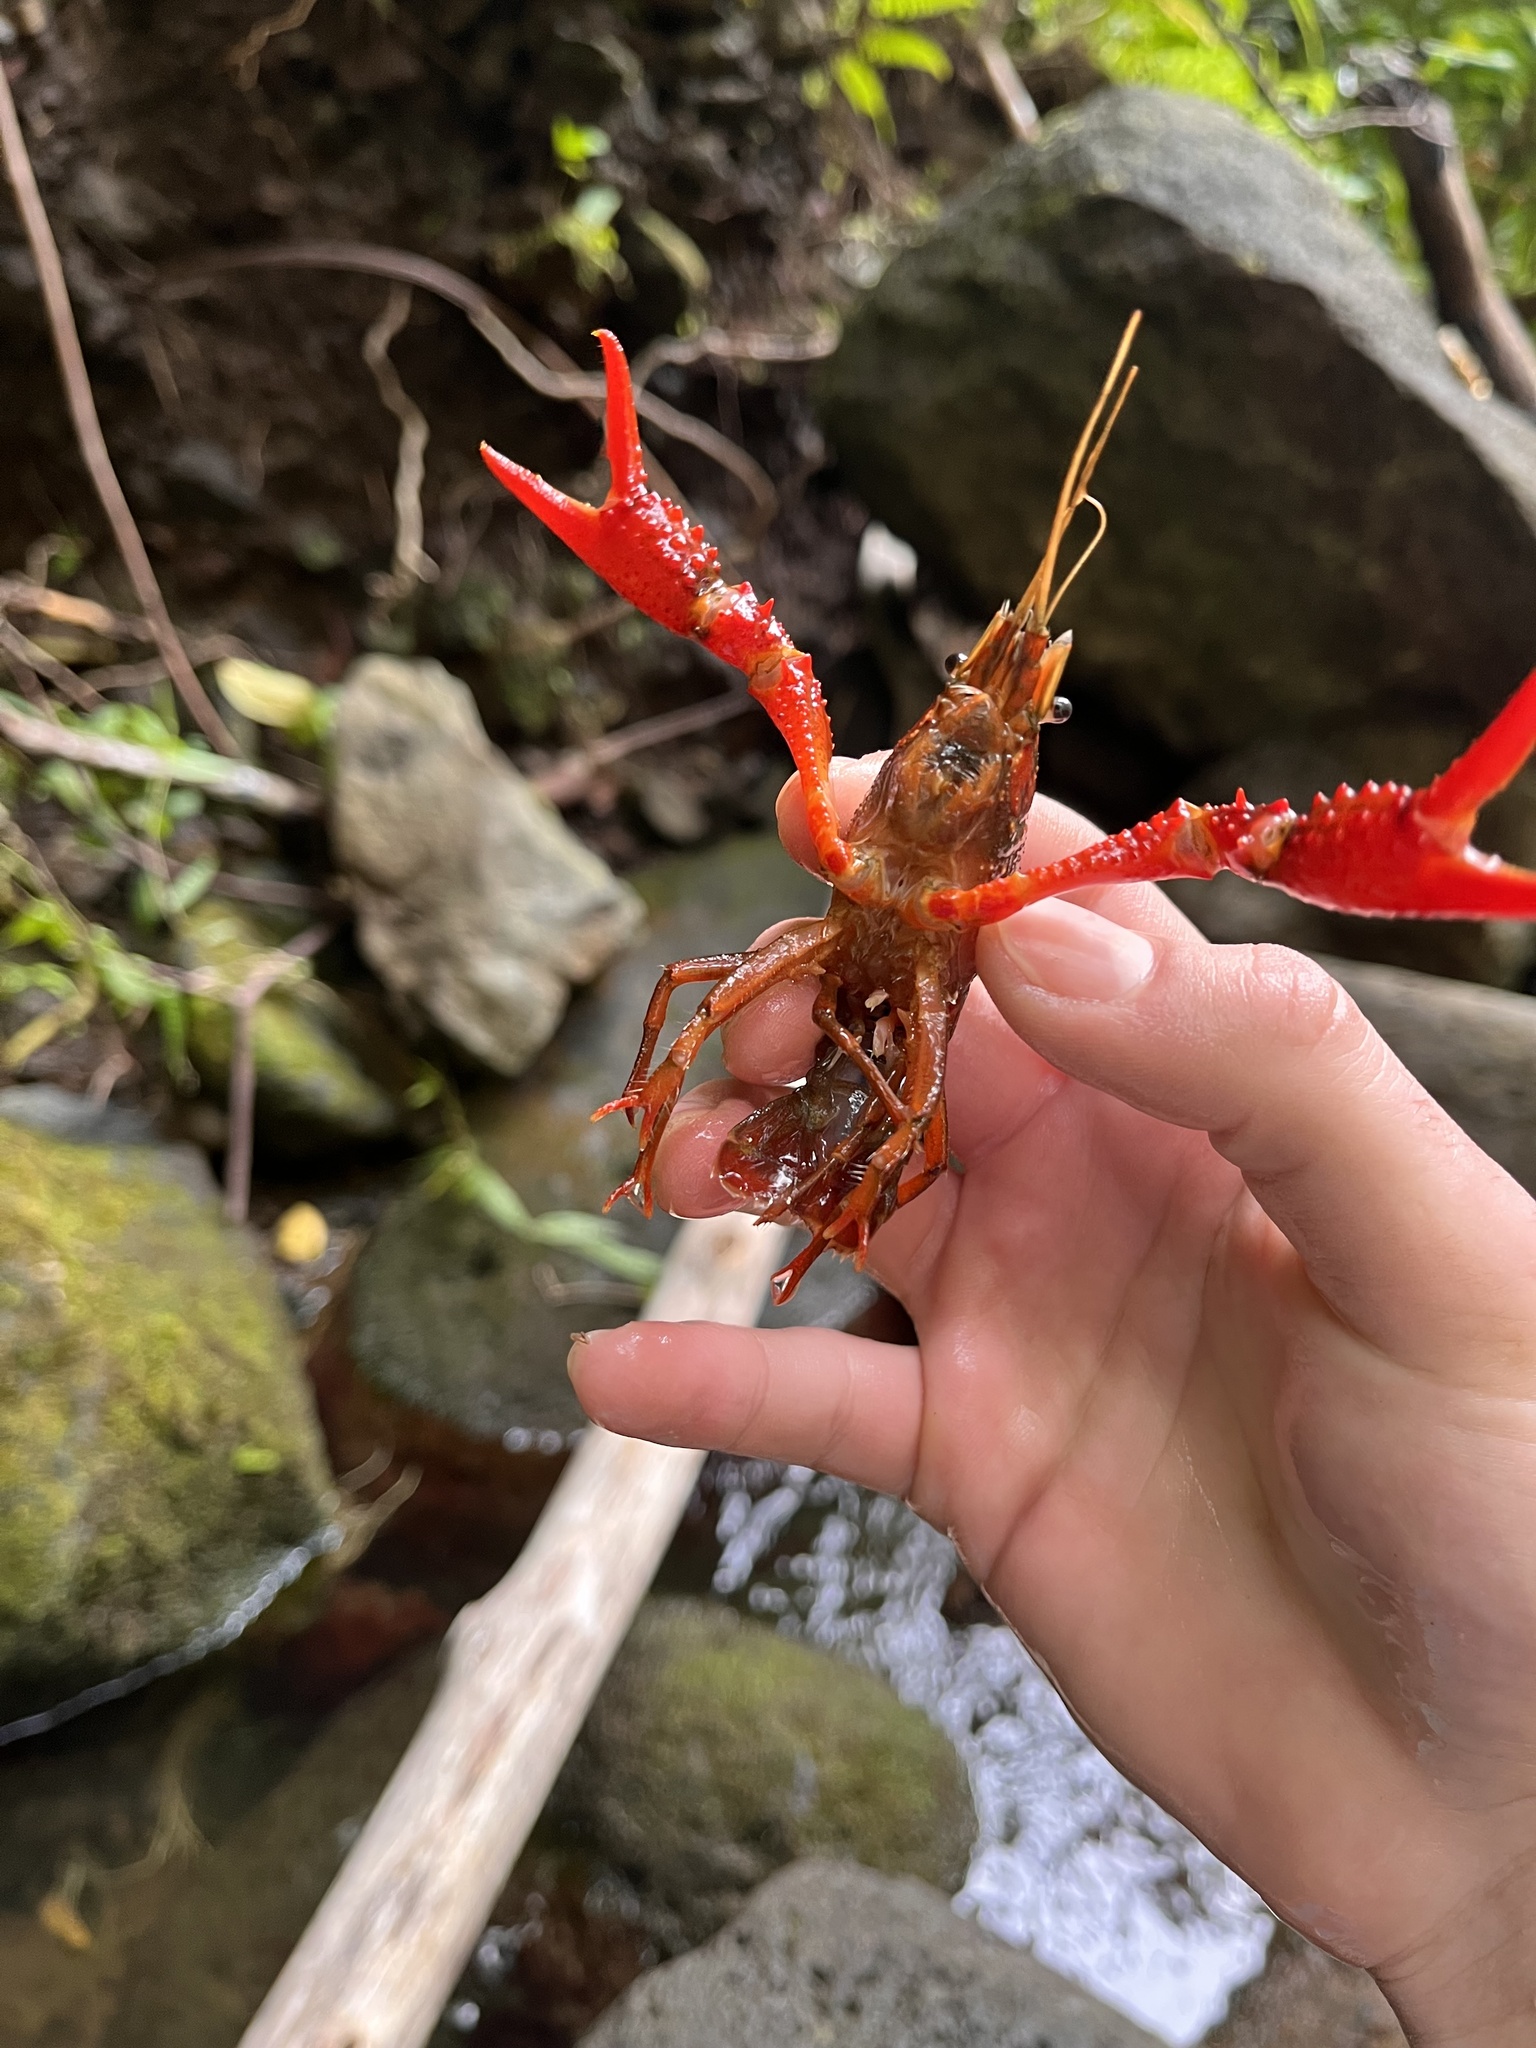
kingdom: Animalia
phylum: Arthropoda
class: Malacostraca
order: Decapoda
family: Cambaridae
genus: Procambarus
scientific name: Procambarus clarkii
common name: Red swamp crayfish
